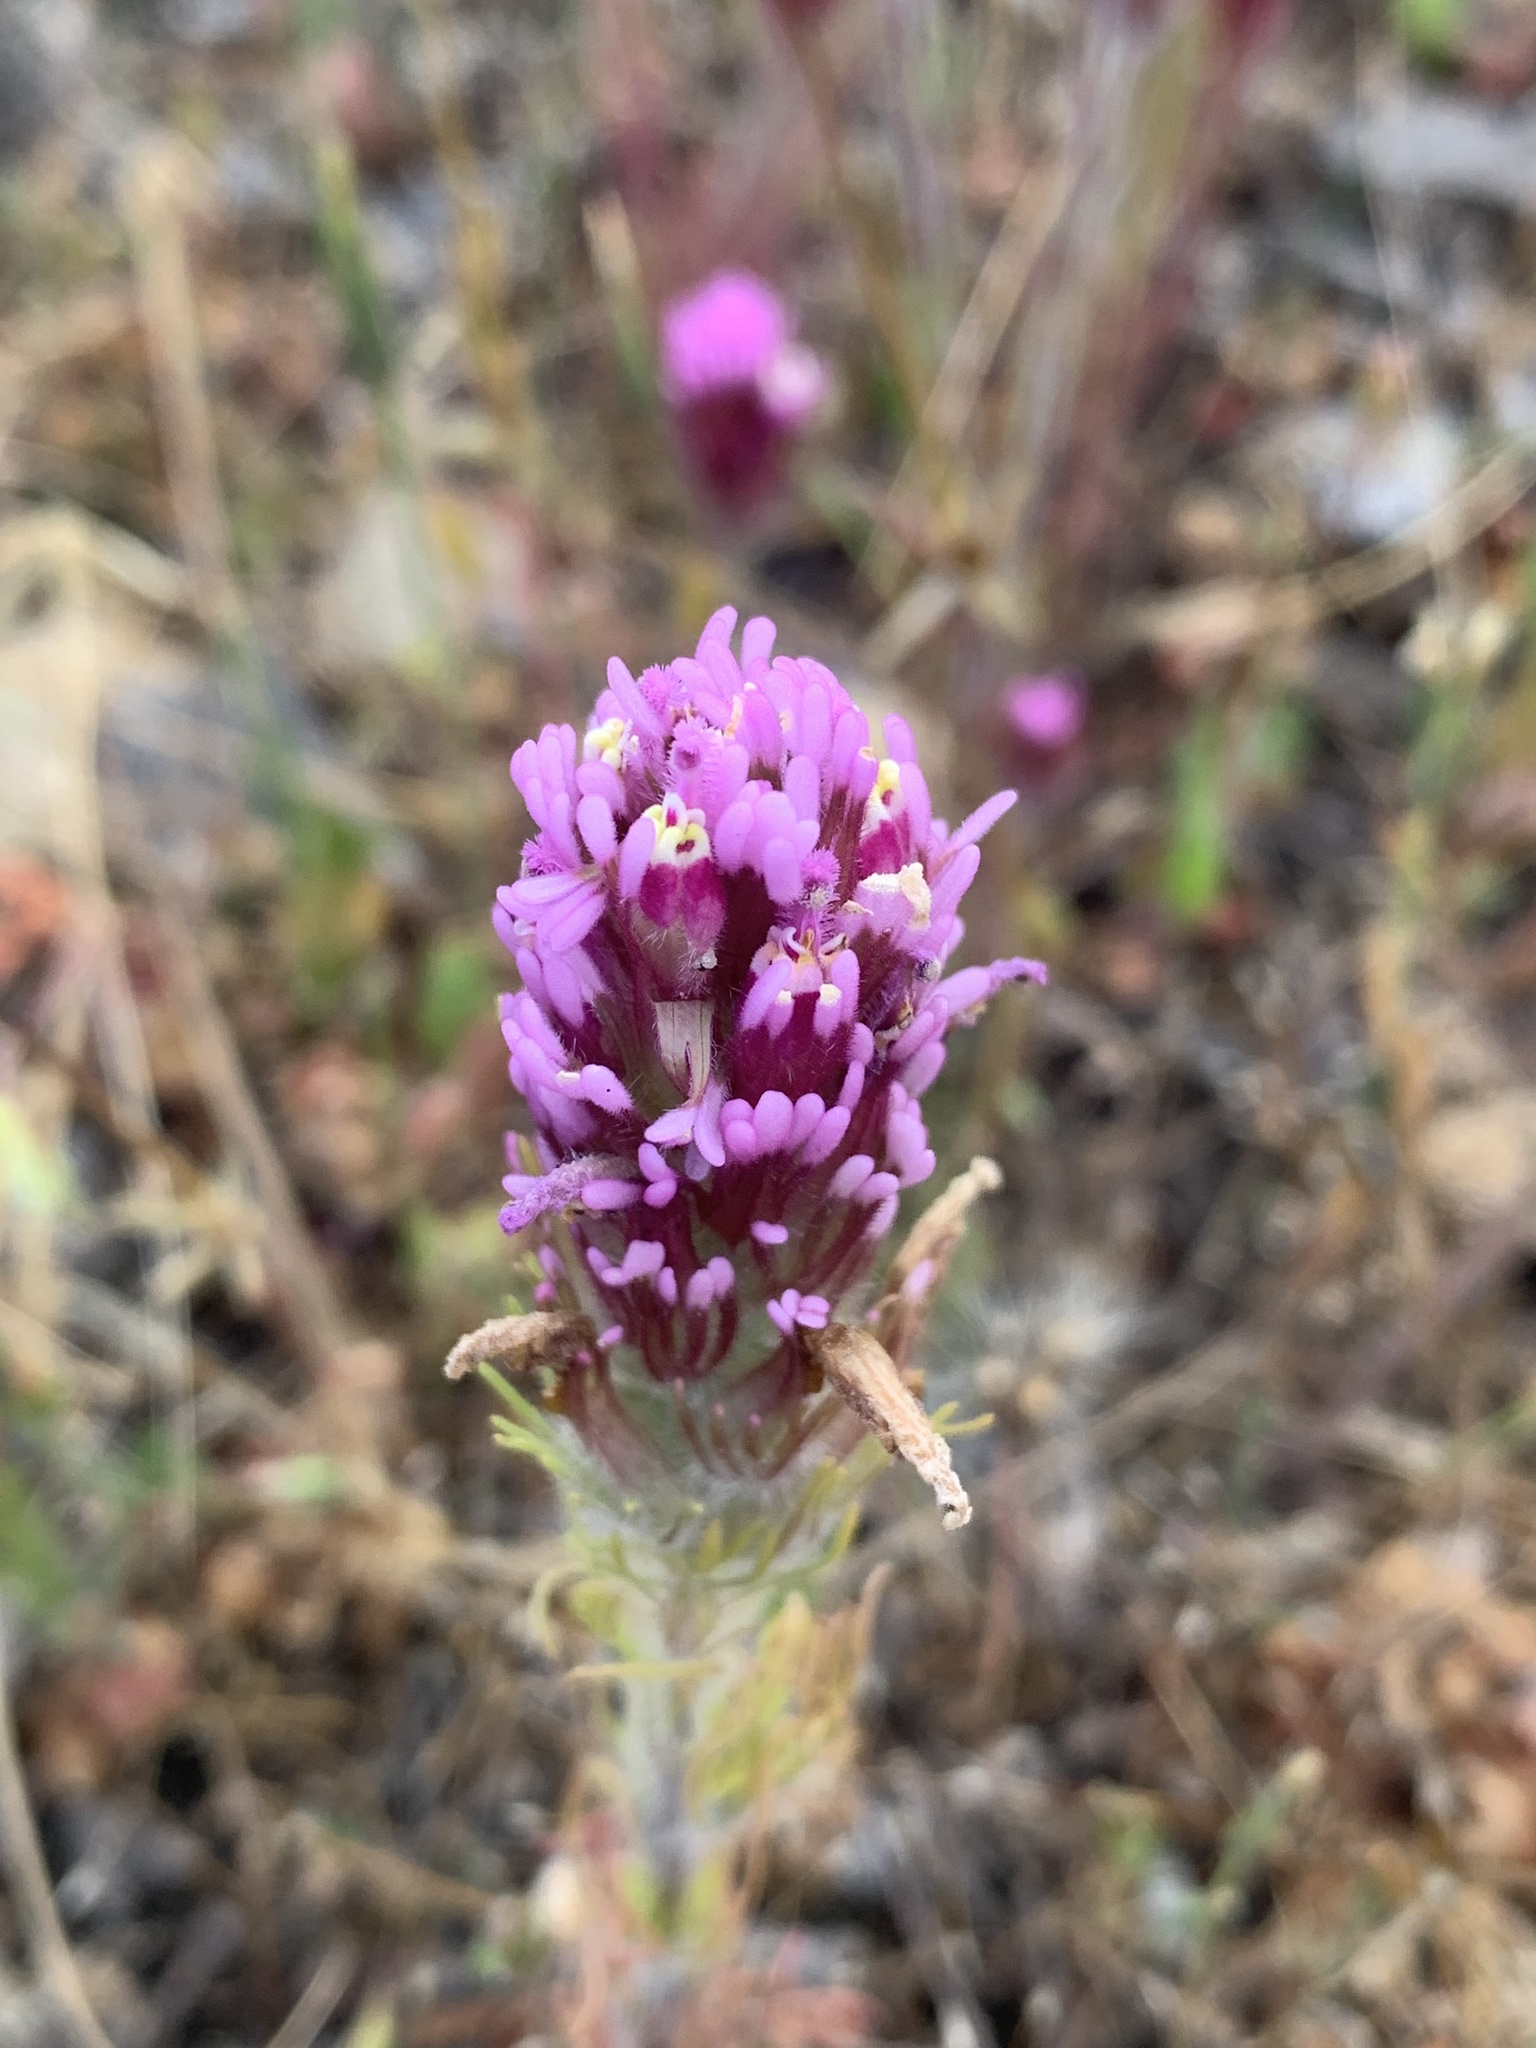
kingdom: Plantae
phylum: Tracheophyta
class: Magnoliopsida
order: Lamiales
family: Orobanchaceae
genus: Castilleja
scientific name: Castilleja exserta
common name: Purple owl-clover
